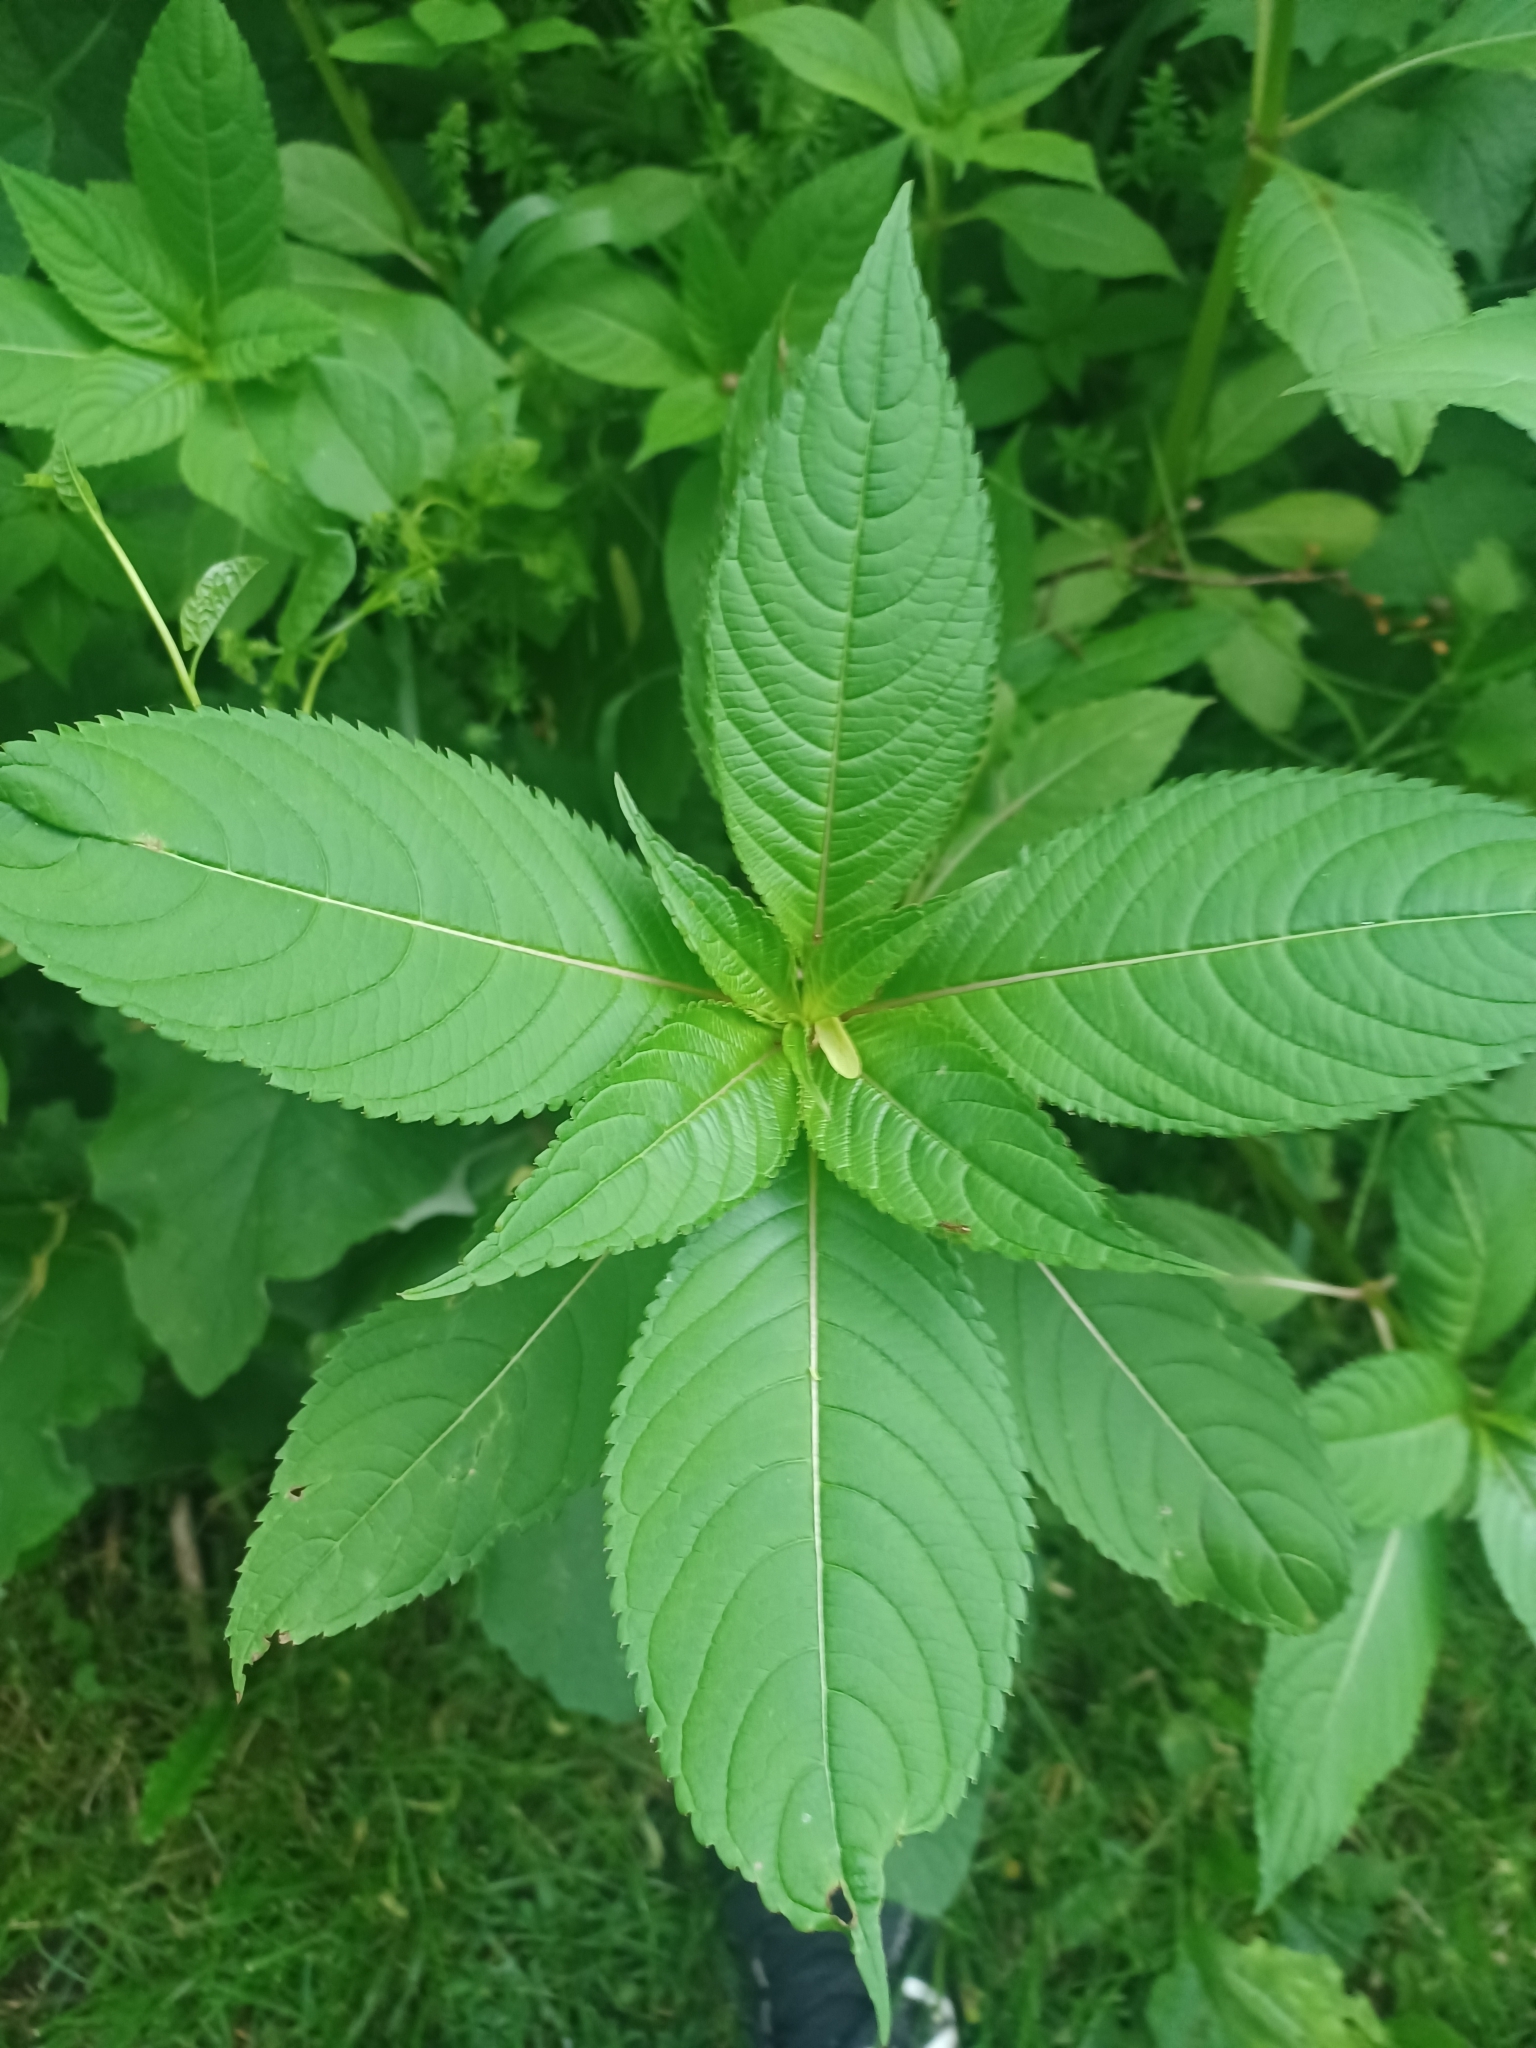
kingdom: Plantae
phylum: Tracheophyta
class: Magnoliopsida
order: Ericales
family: Balsaminaceae
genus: Impatiens
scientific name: Impatiens glandulifera
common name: Himalayan balsam
